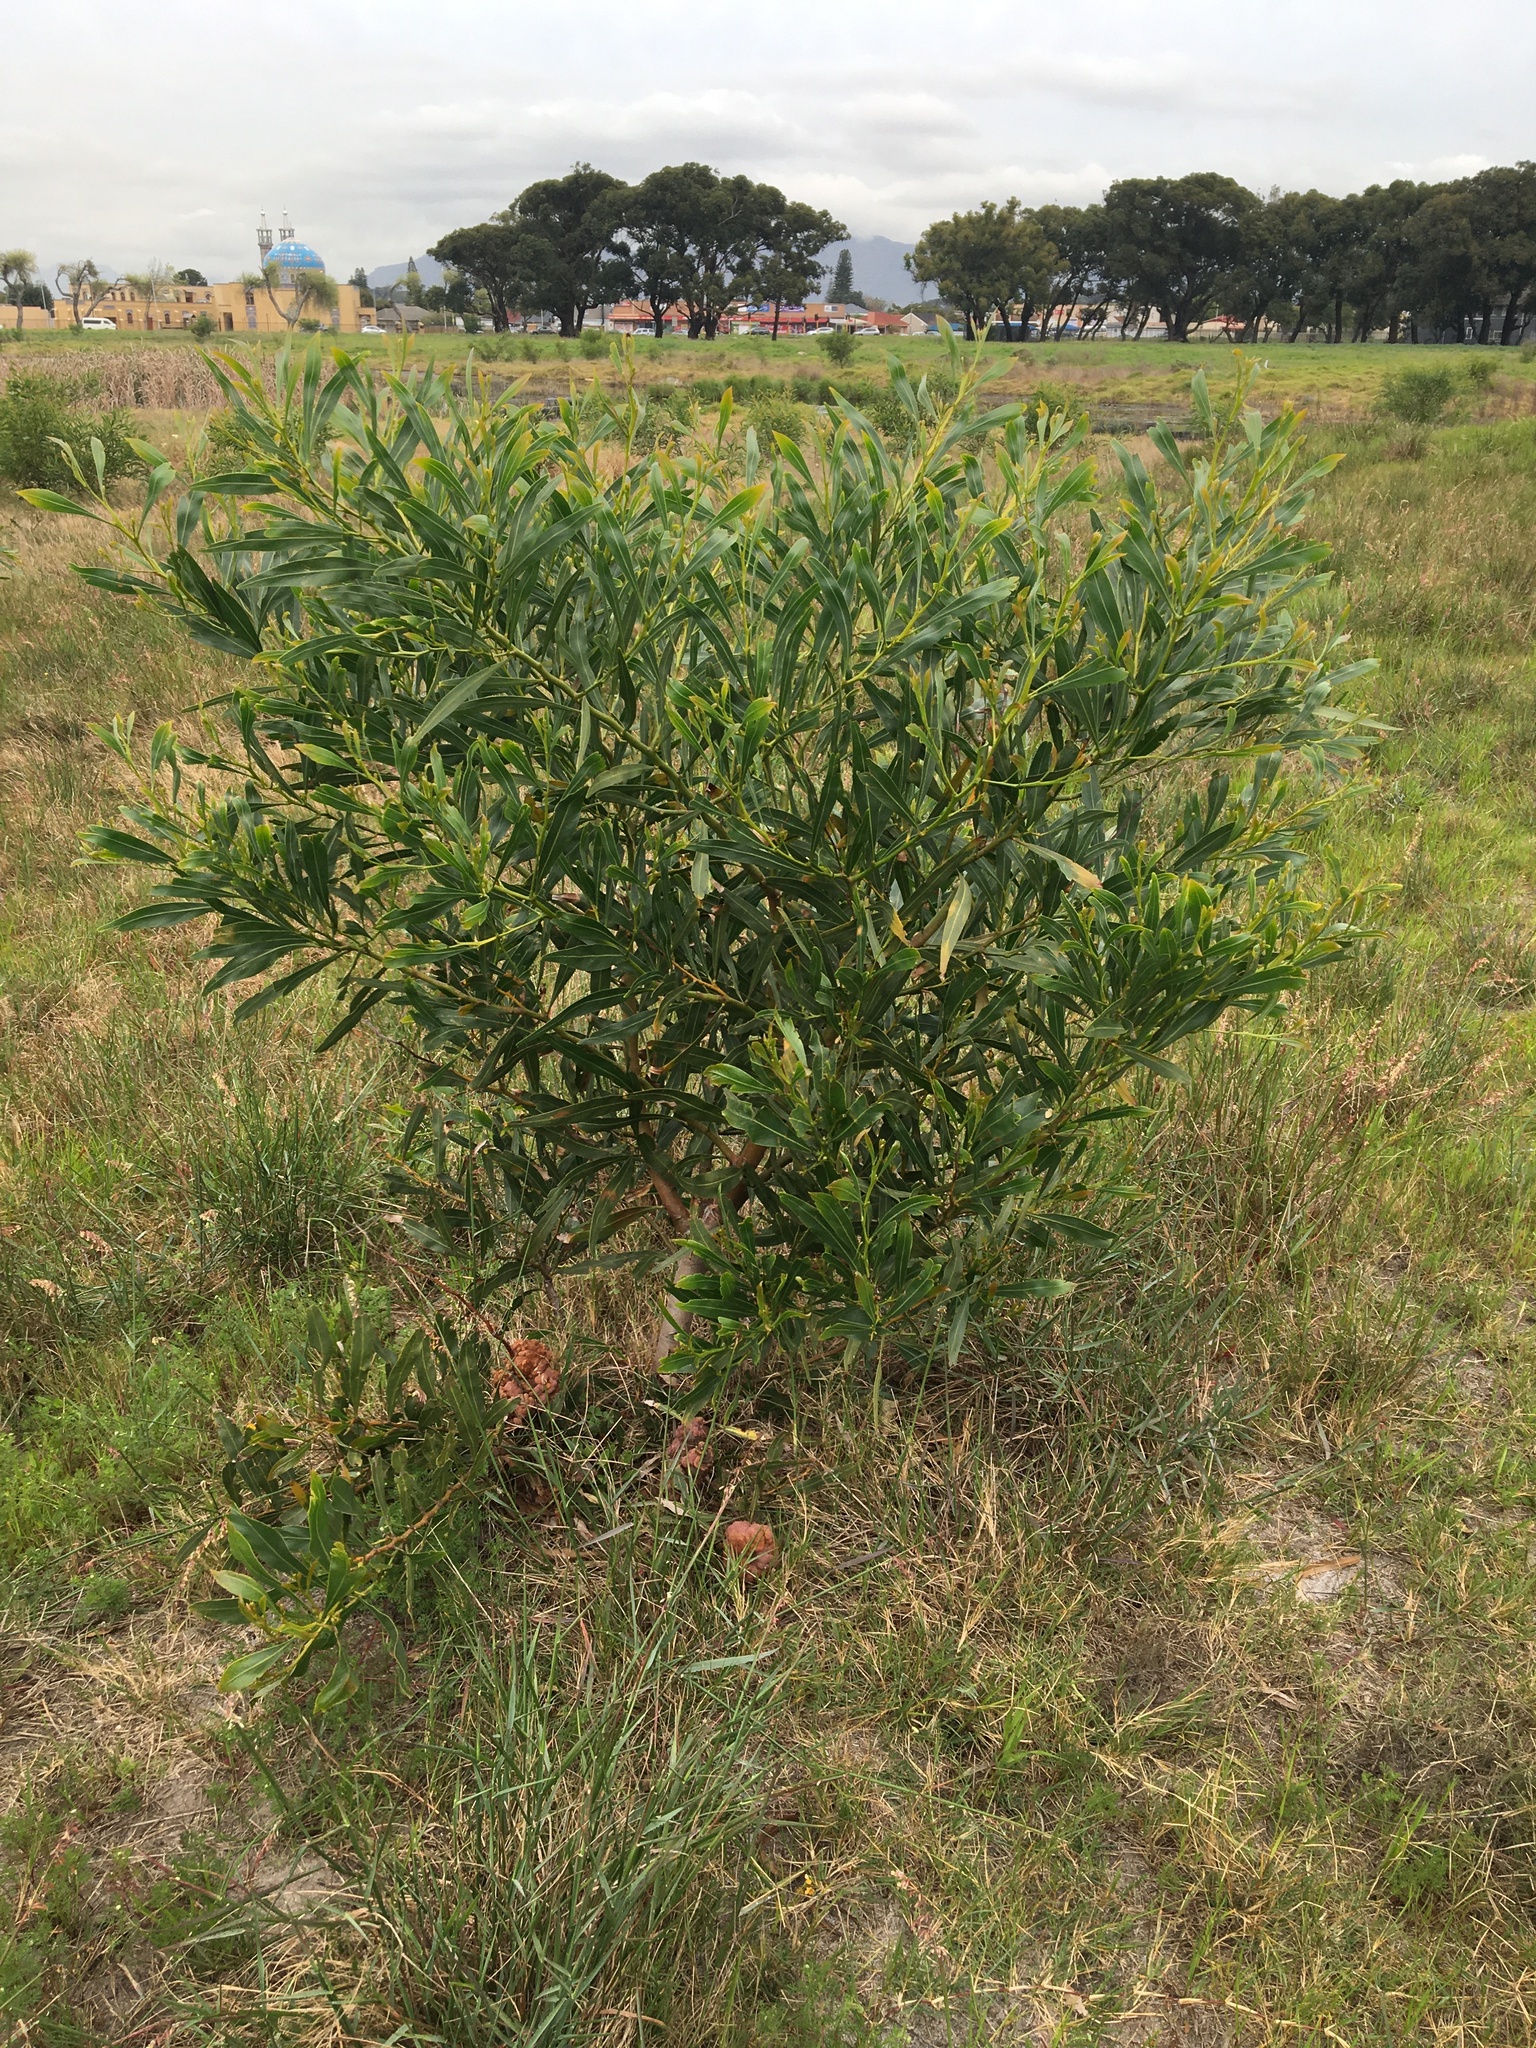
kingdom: Plantae
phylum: Tracheophyta
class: Magnoliopsida
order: Fabales
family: Fabaceae
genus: Acacia
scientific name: Acacia saligna
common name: Orange wattle
